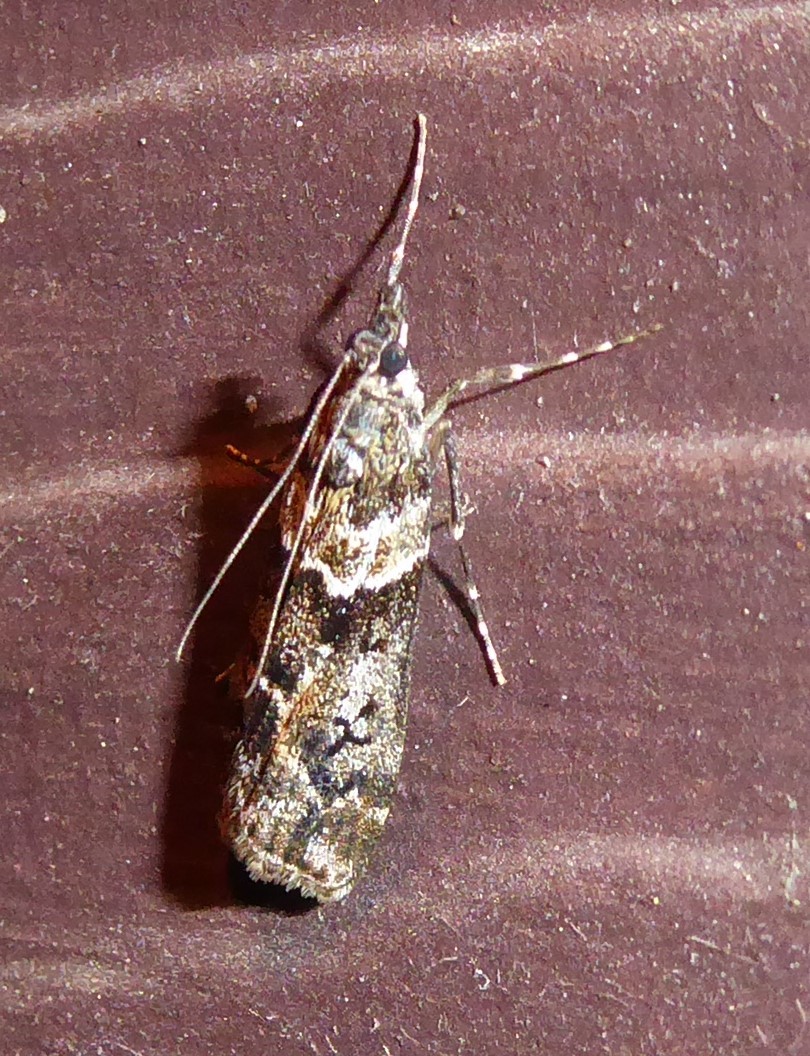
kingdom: Animalia
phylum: Arthropoda
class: Insecta
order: Lepidoptera
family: Crambidae
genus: Eudonia
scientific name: Eudonia submarginalis
